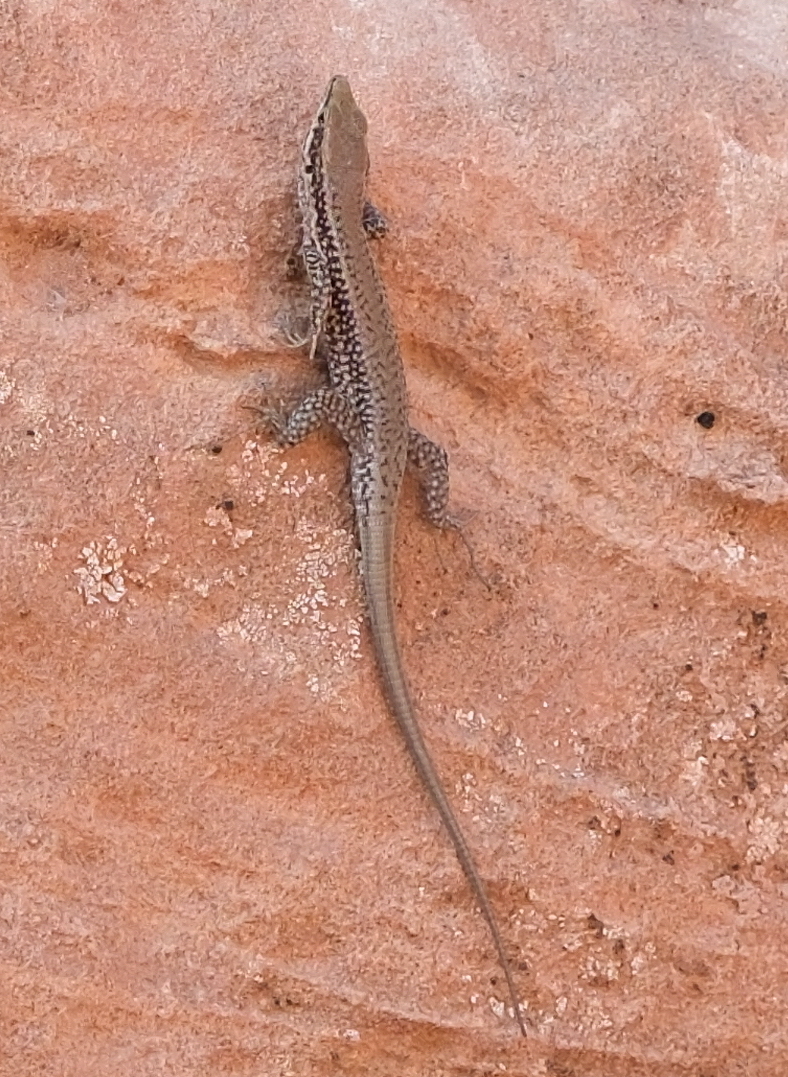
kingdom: Animalia
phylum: Chordata
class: Squamata
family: Lacertidae
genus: Phoenicolacerta
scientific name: Phoenicolacerta kulzeri
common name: Kulzer’s rock lizard
